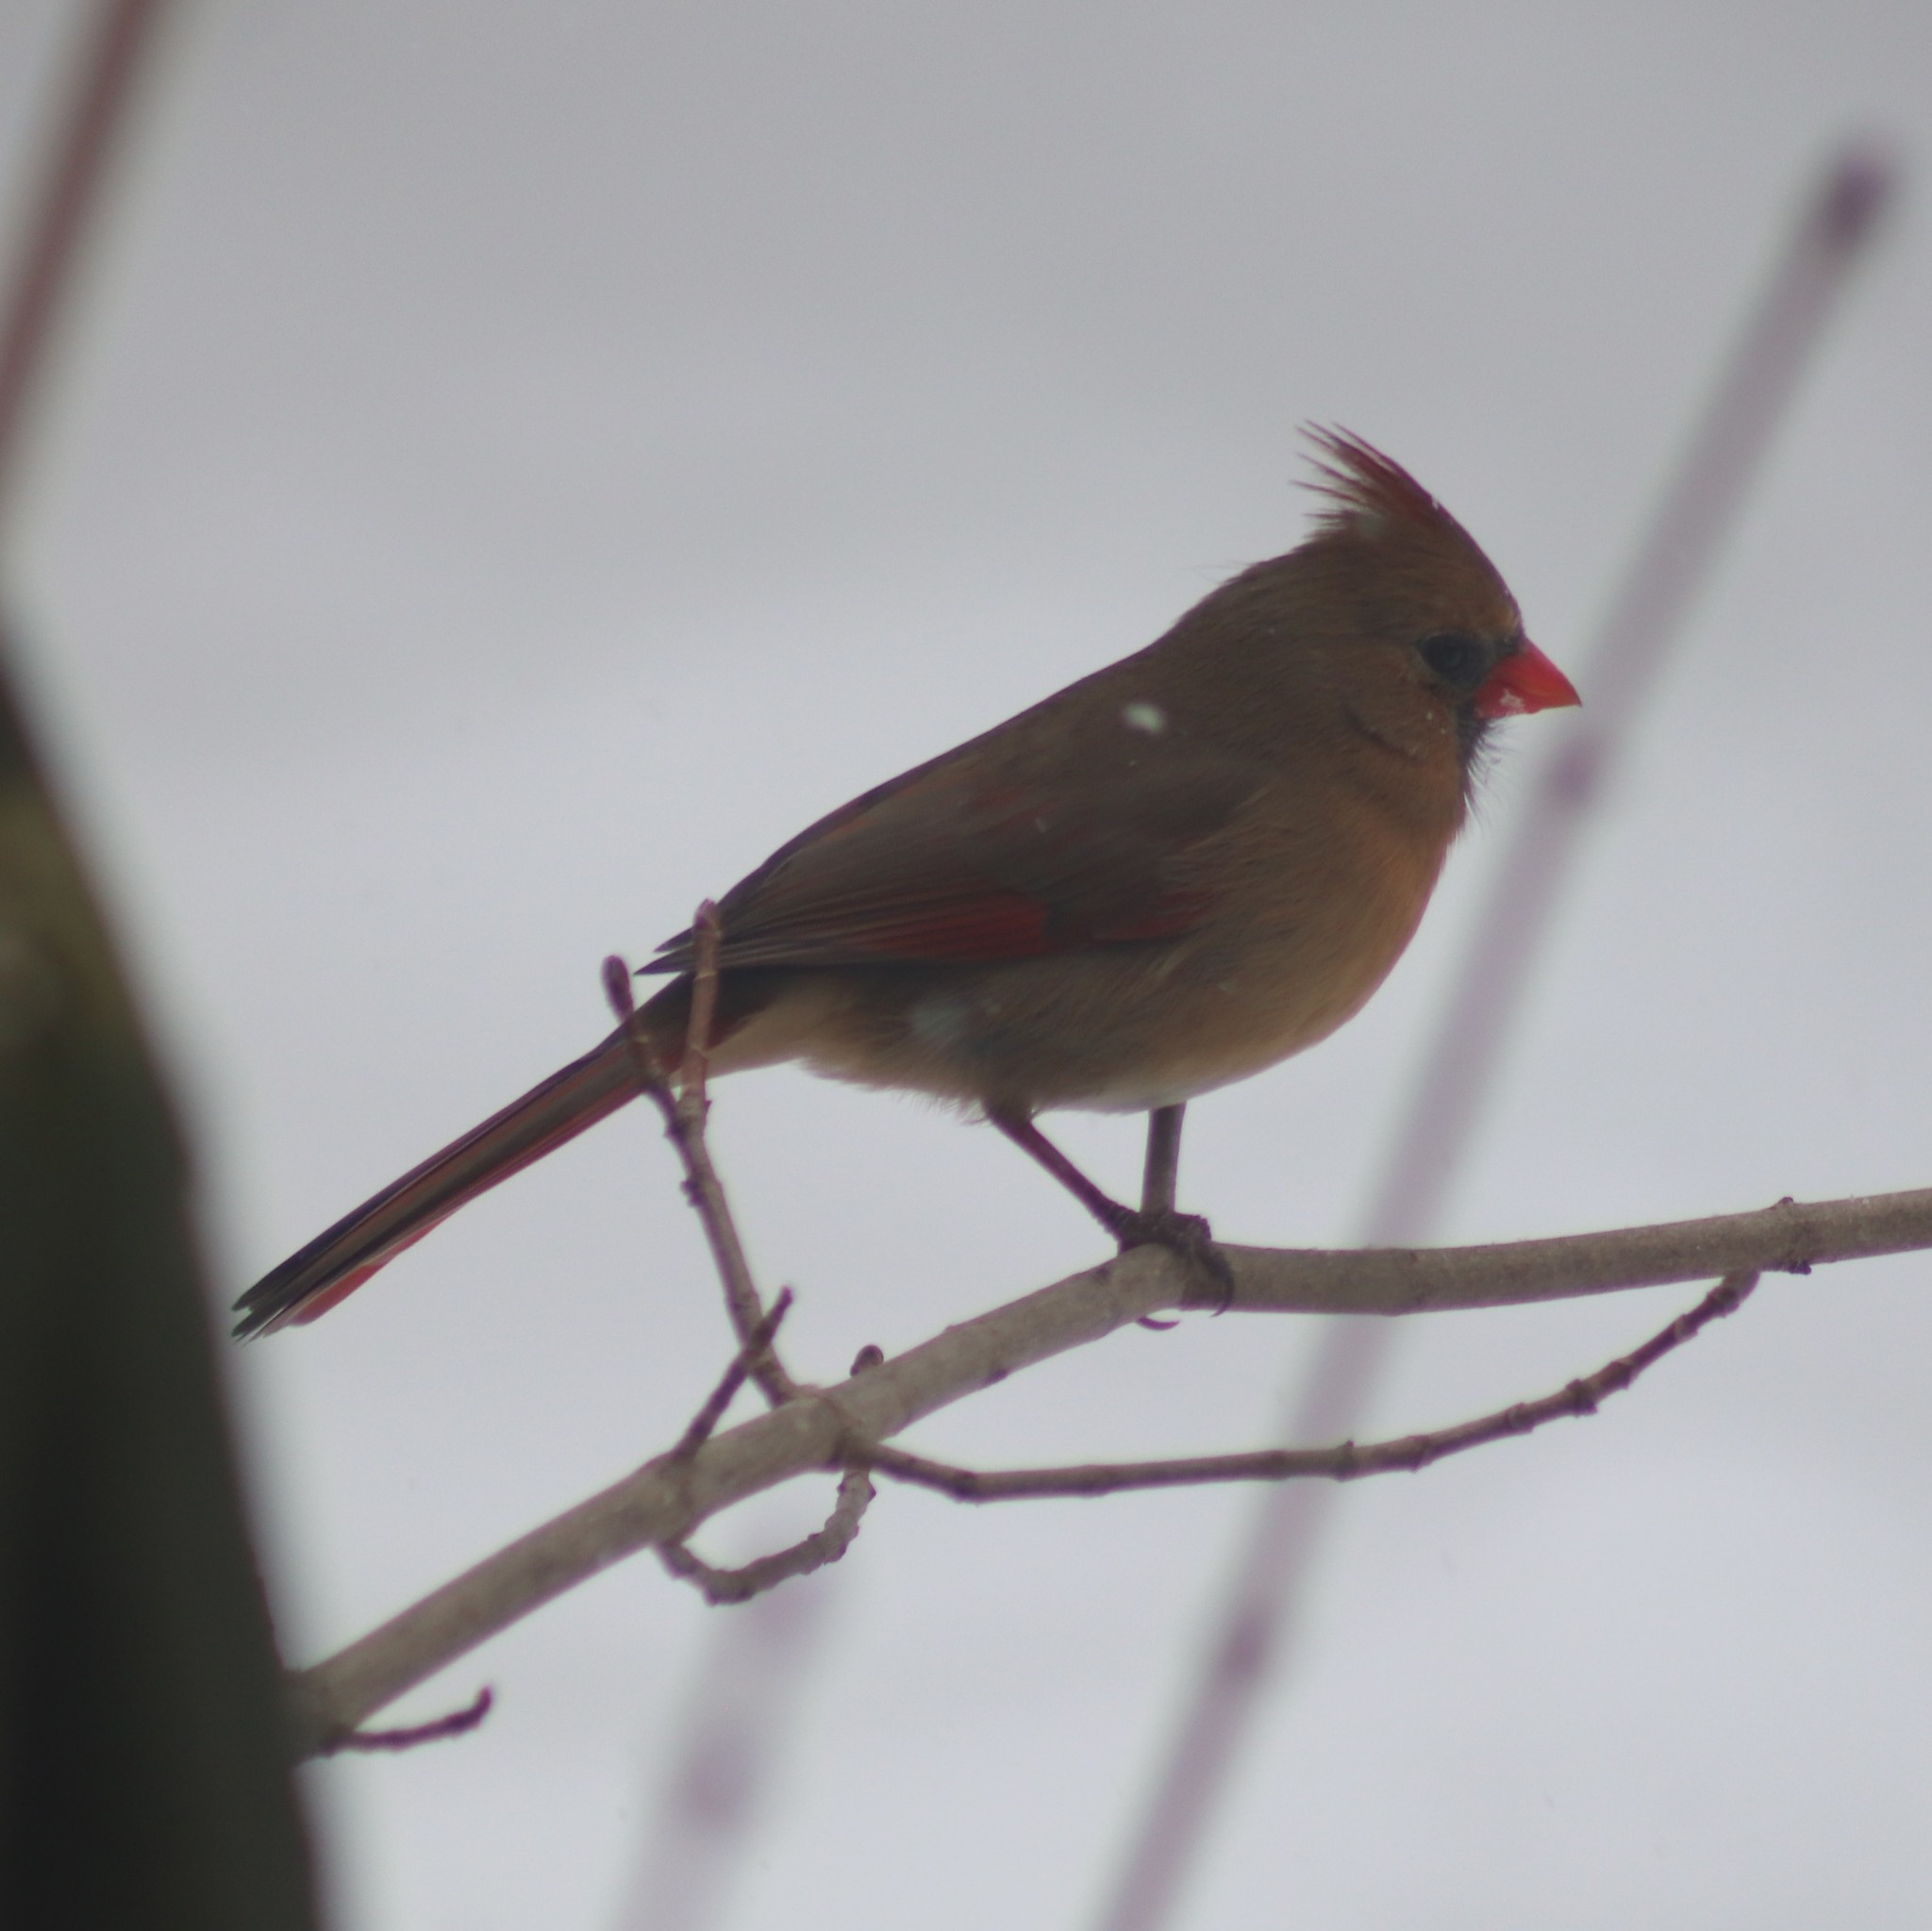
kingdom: Animalia
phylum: Chordata
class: Aves
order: Passeriformes
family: Cardinalidae
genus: Cardinalis
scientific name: Cardinalis cardinalis
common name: Northern cardinal
